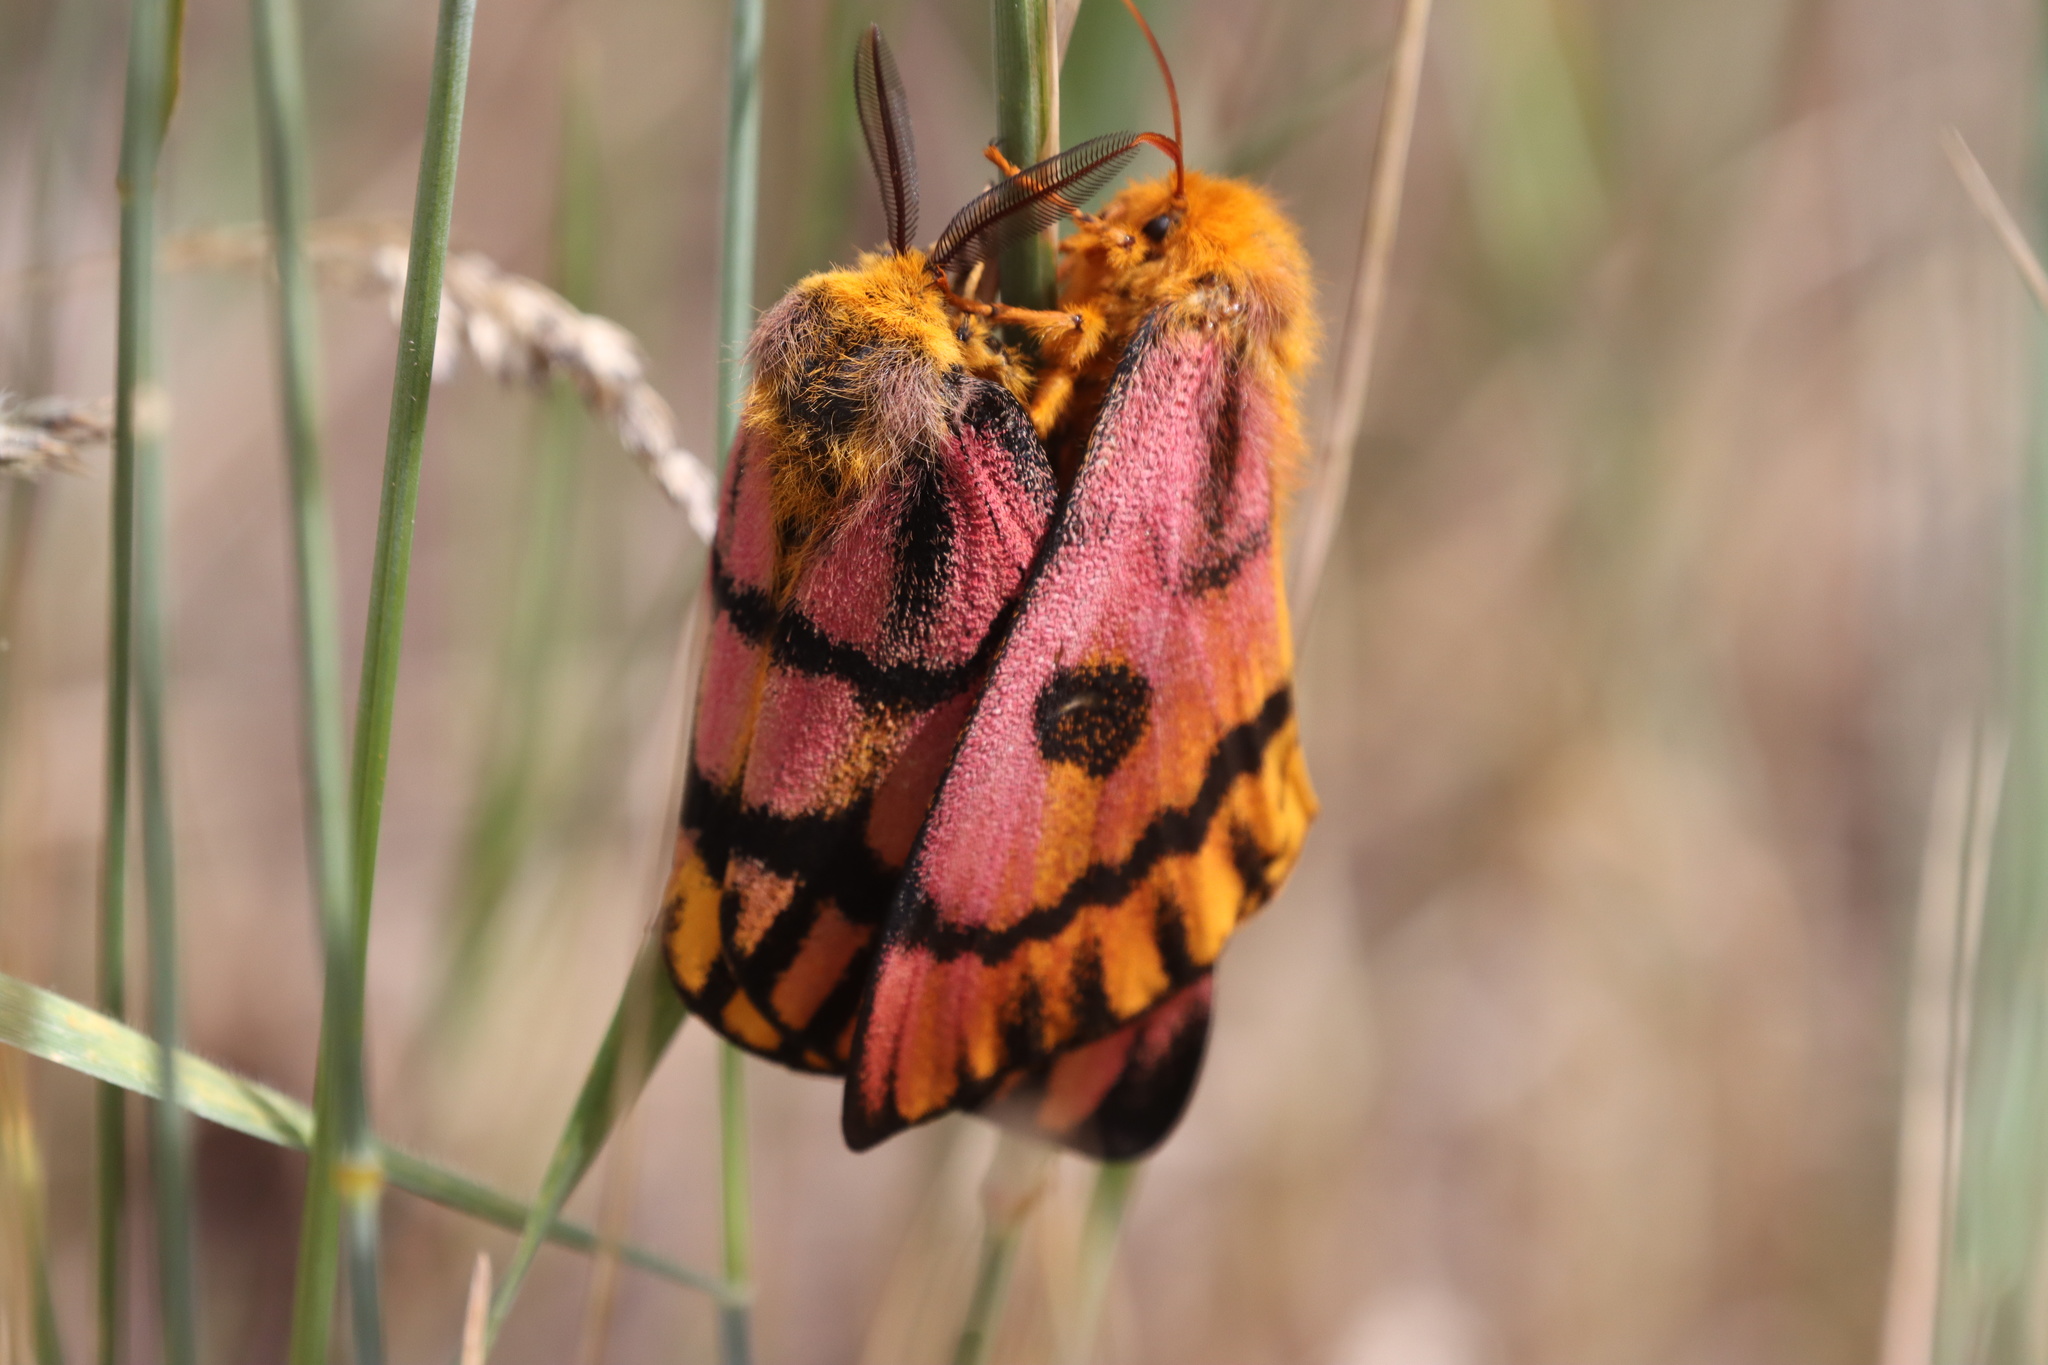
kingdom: Animalia
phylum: Arthropoda
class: Insecta
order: Lepidoptera
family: Saturniidae
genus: Hemileuca
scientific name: Hemileuca eglanterina
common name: Western sheepmoth
